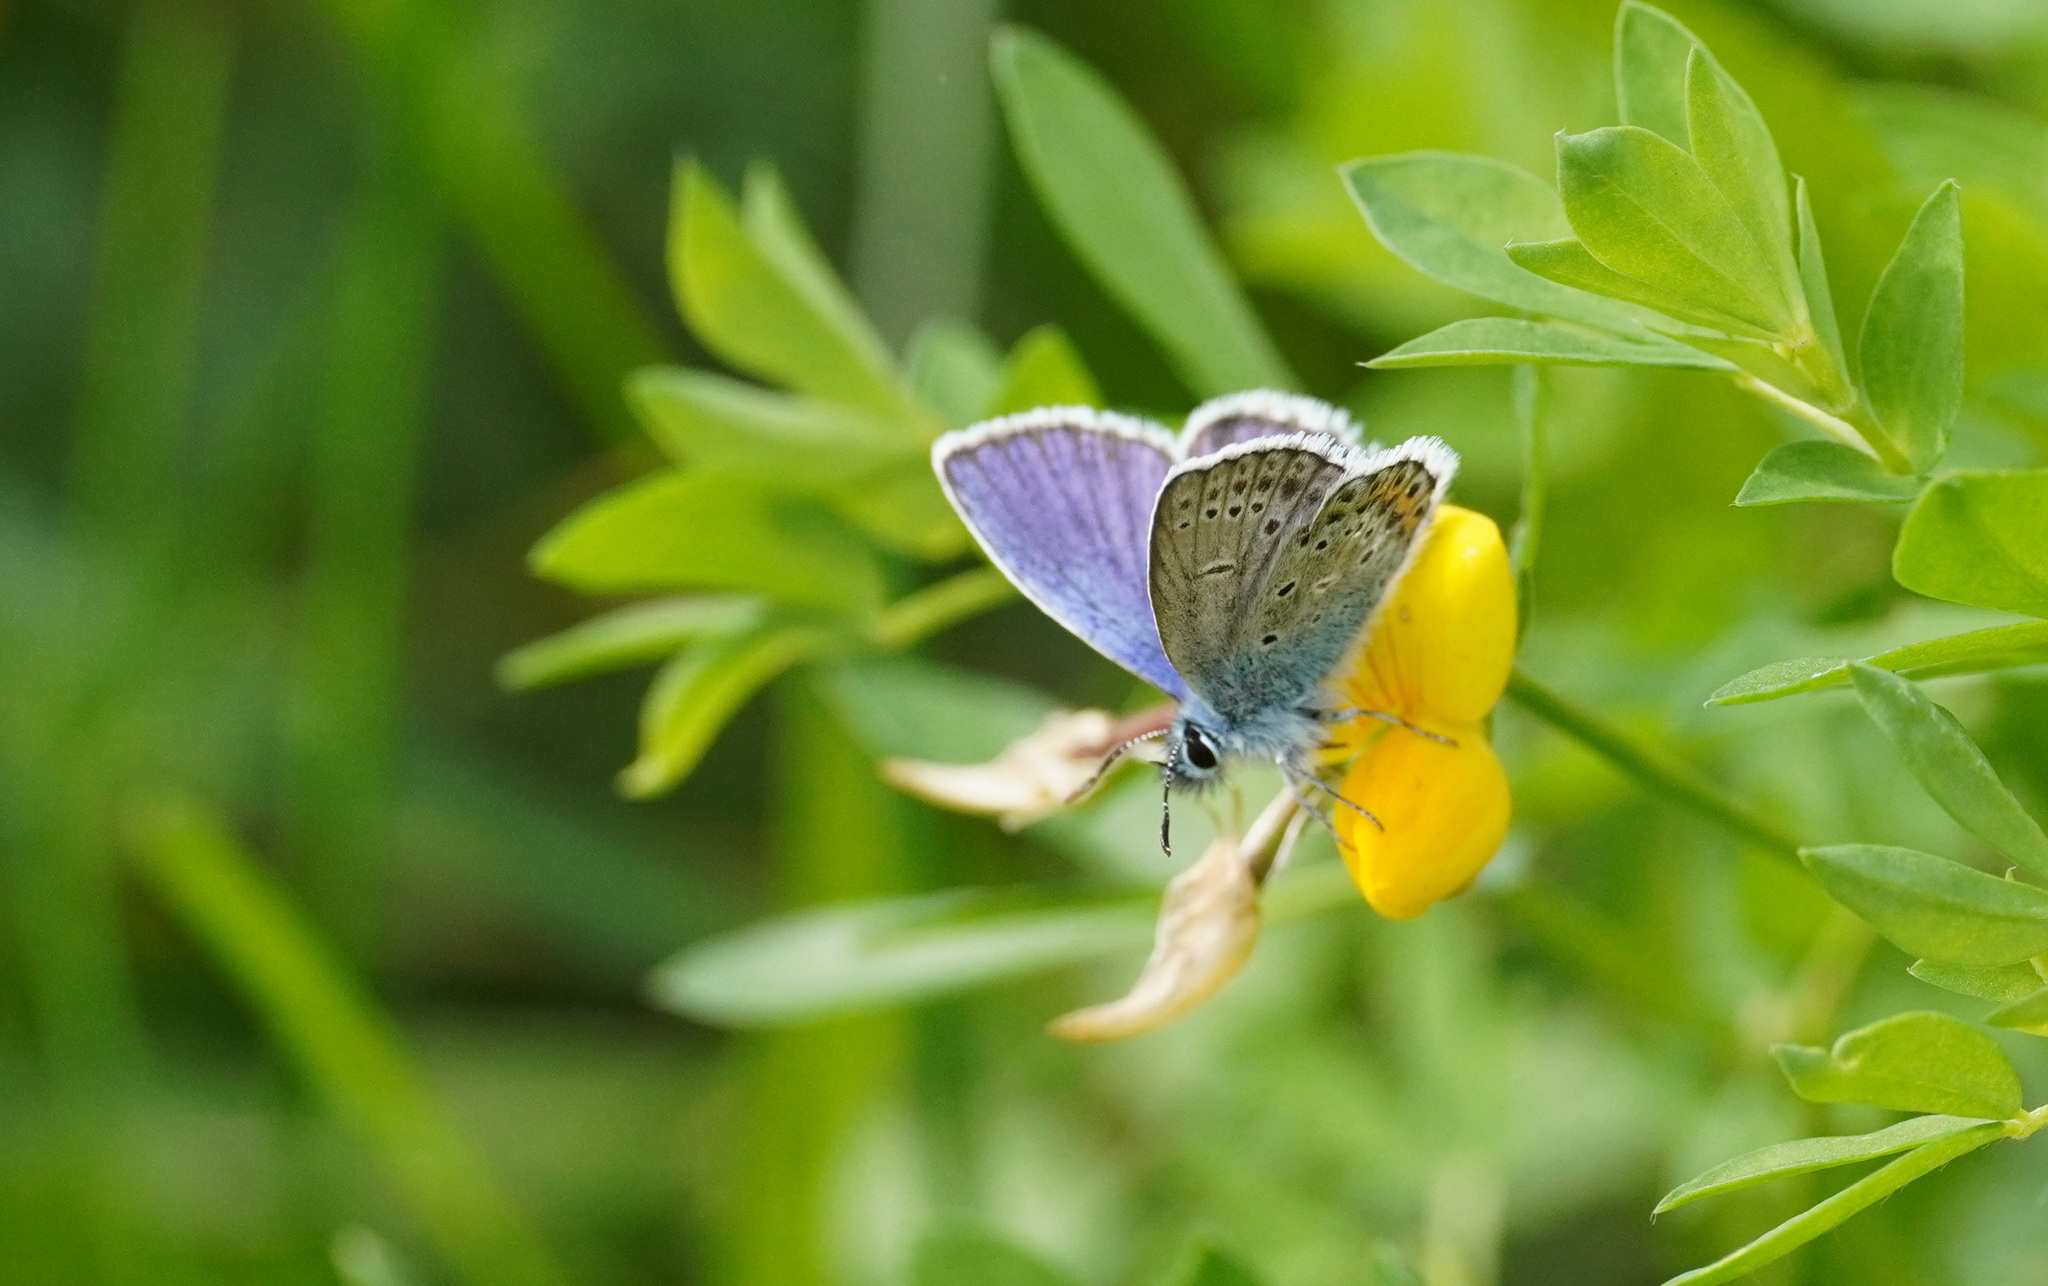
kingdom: Animalia
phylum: Arthropoda
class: Insecta
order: Lepidoptera
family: Lycaenidae
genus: Lycaeides
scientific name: Lycaeides idas
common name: Northern blue
